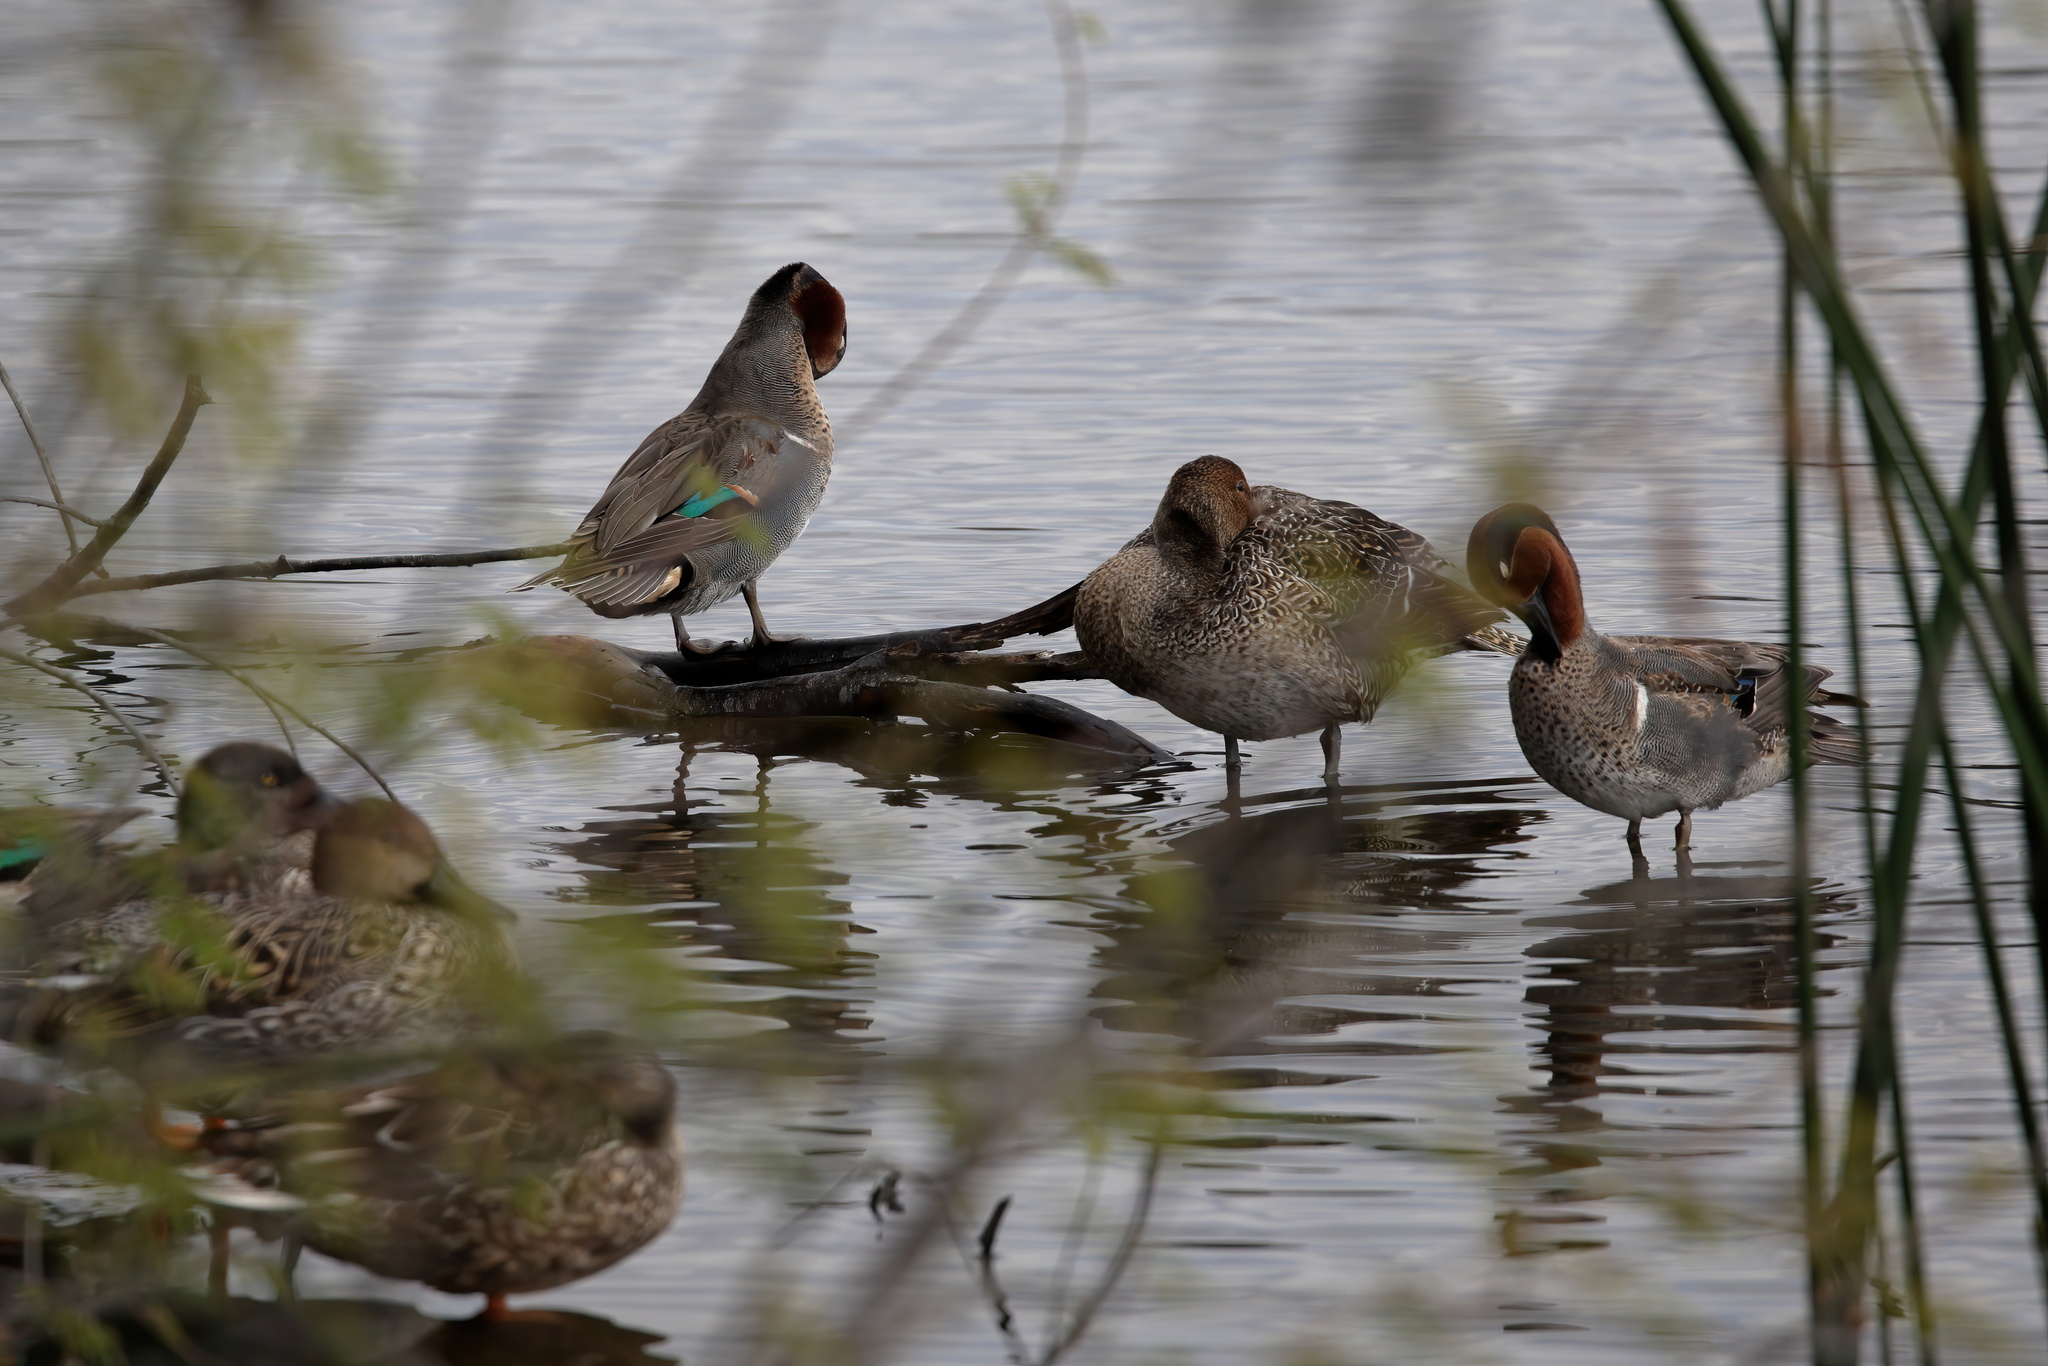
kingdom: Animalia
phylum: Chordata
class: Aves
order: Anseriformes
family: Anatidae
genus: Anas
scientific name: Anas crecca
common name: Eurasian teal
